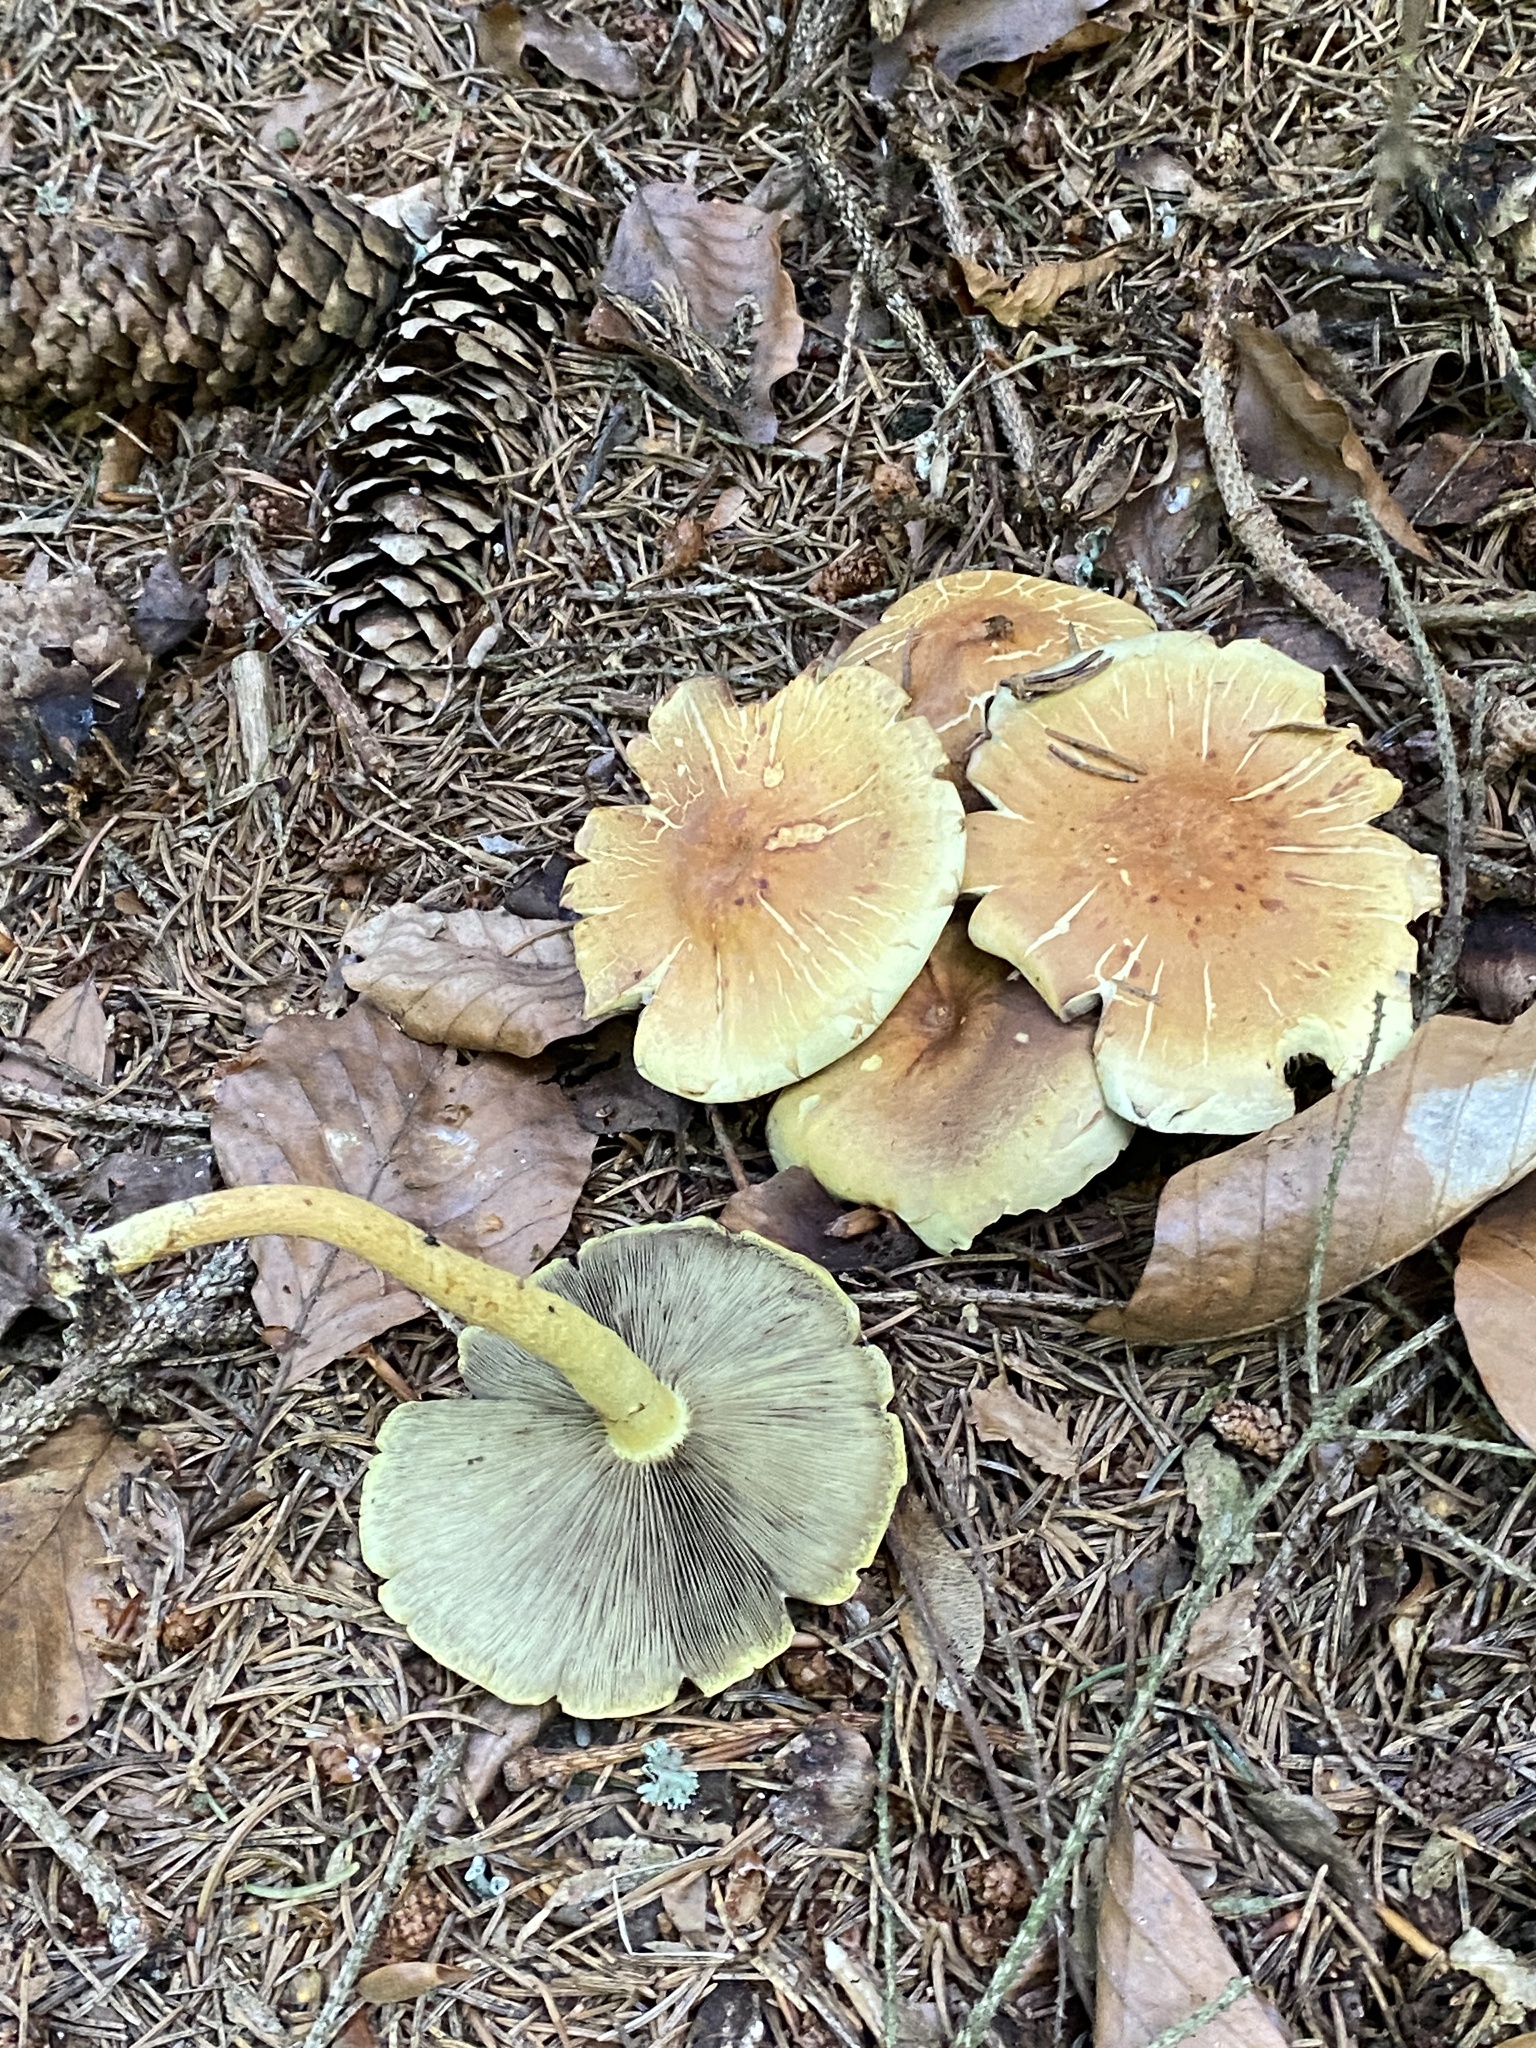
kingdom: Fungi
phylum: Basidiomycota
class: Agaricomycetes
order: Agaricales
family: Strophariaceae
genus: Hypholoma
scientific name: Hypholoma fasciculare
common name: Sulphur tuft
